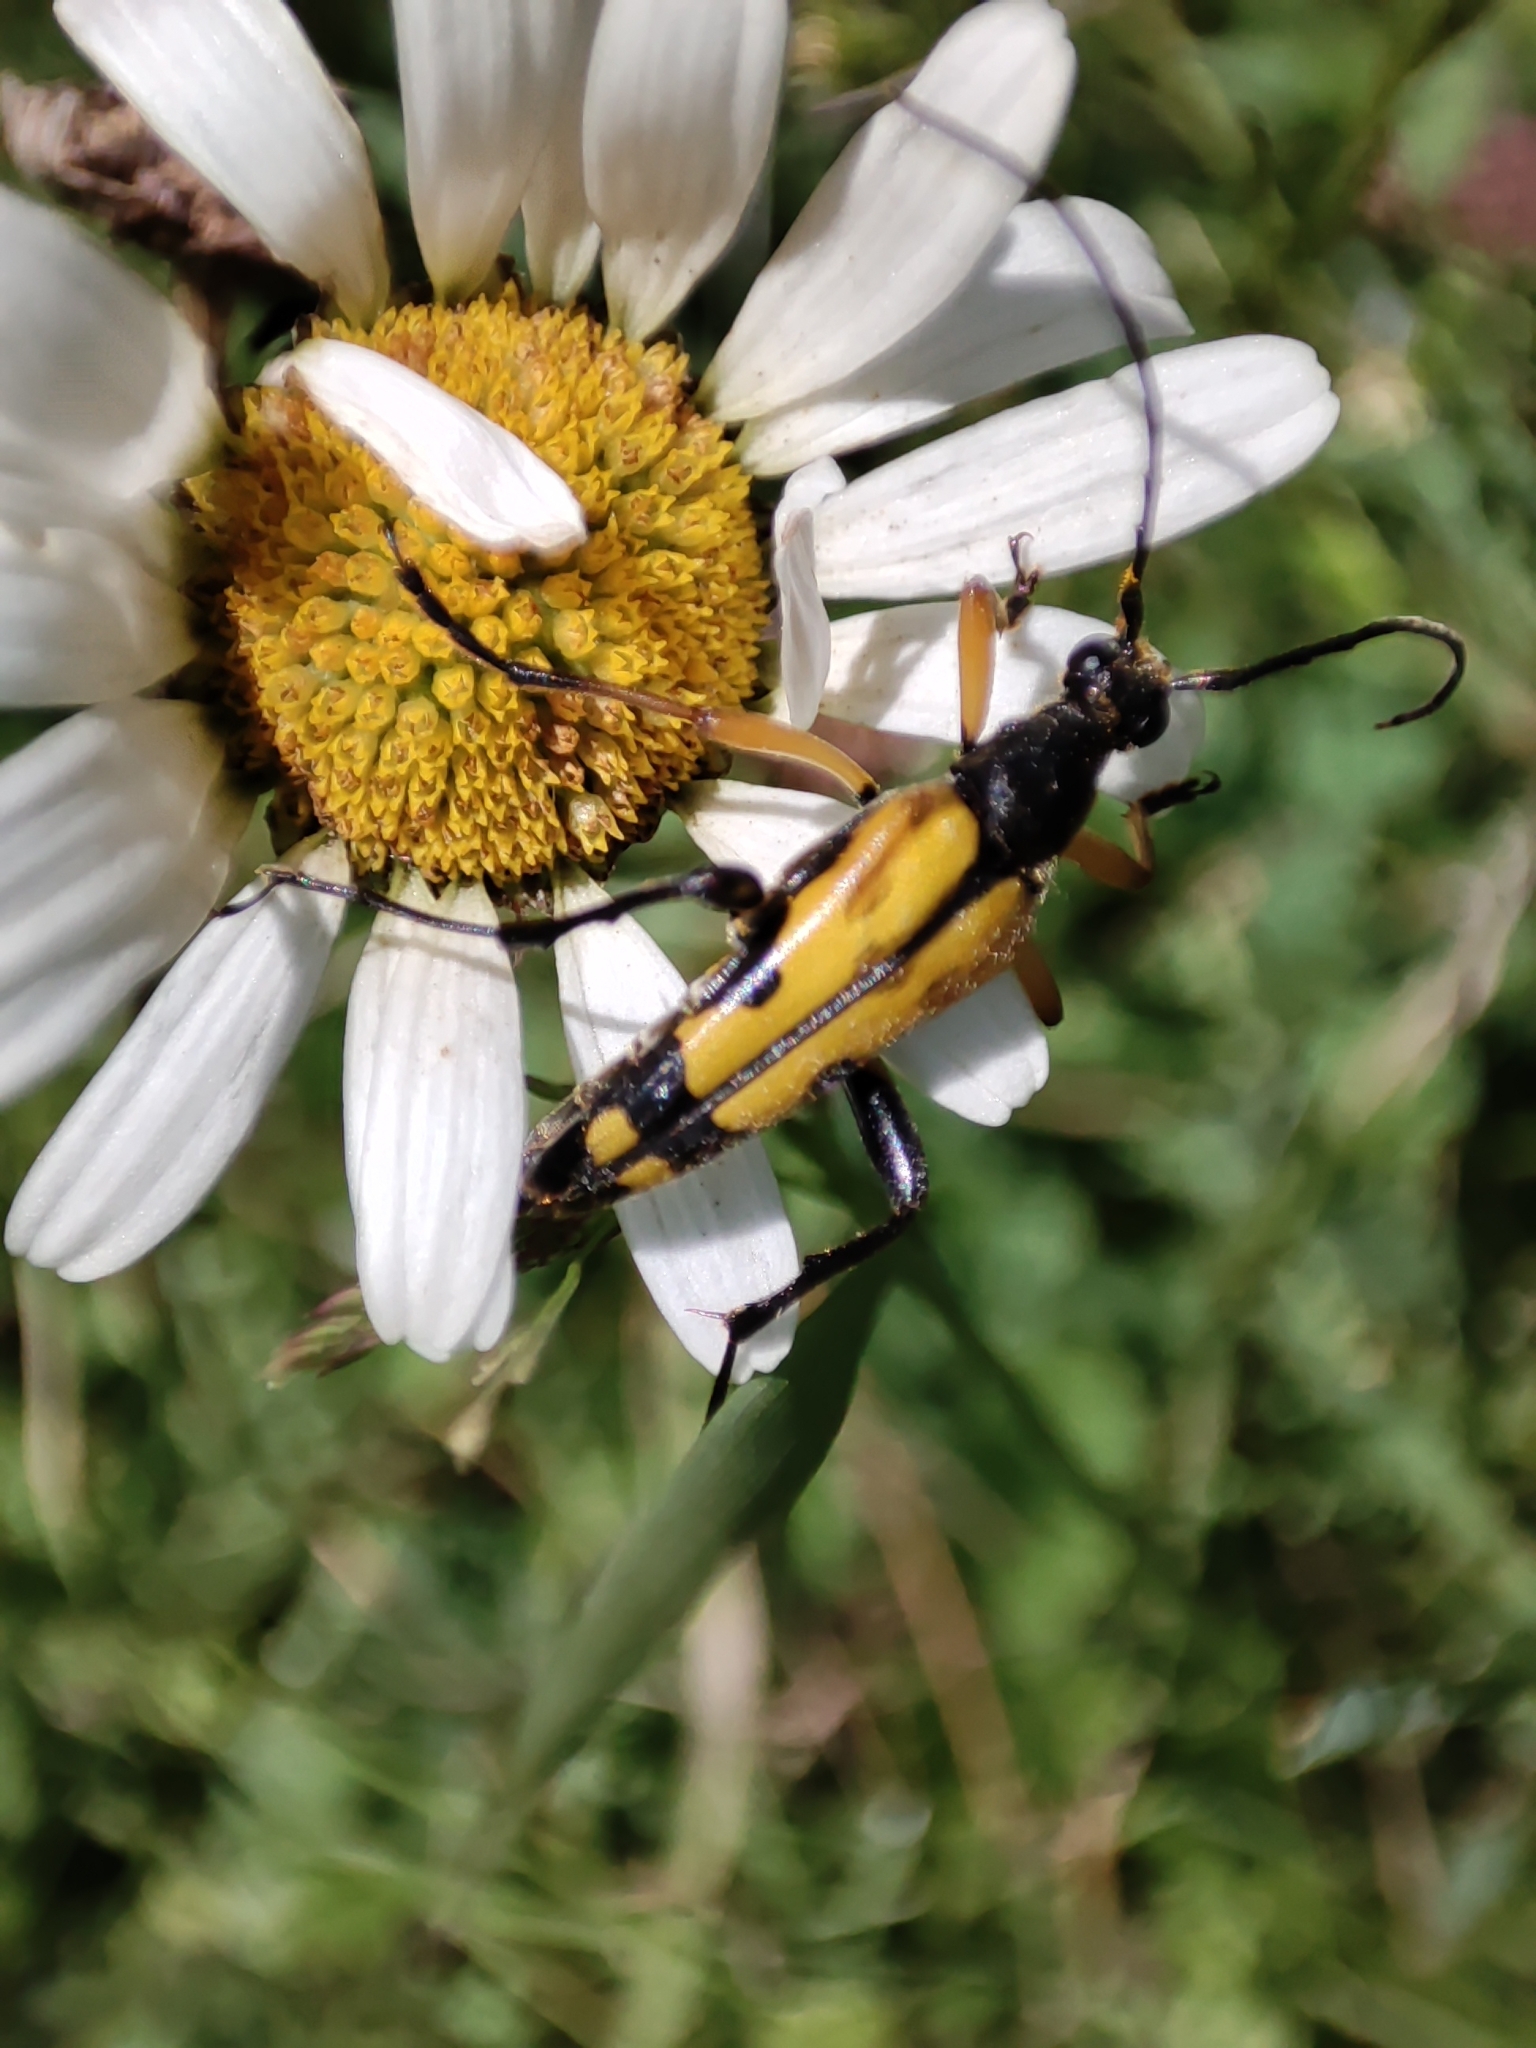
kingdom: Animalia
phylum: Arthropoda
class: Insecta
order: Coleoptera
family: Cerambycidae
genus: Rutpela
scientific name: Rutpela maculata
